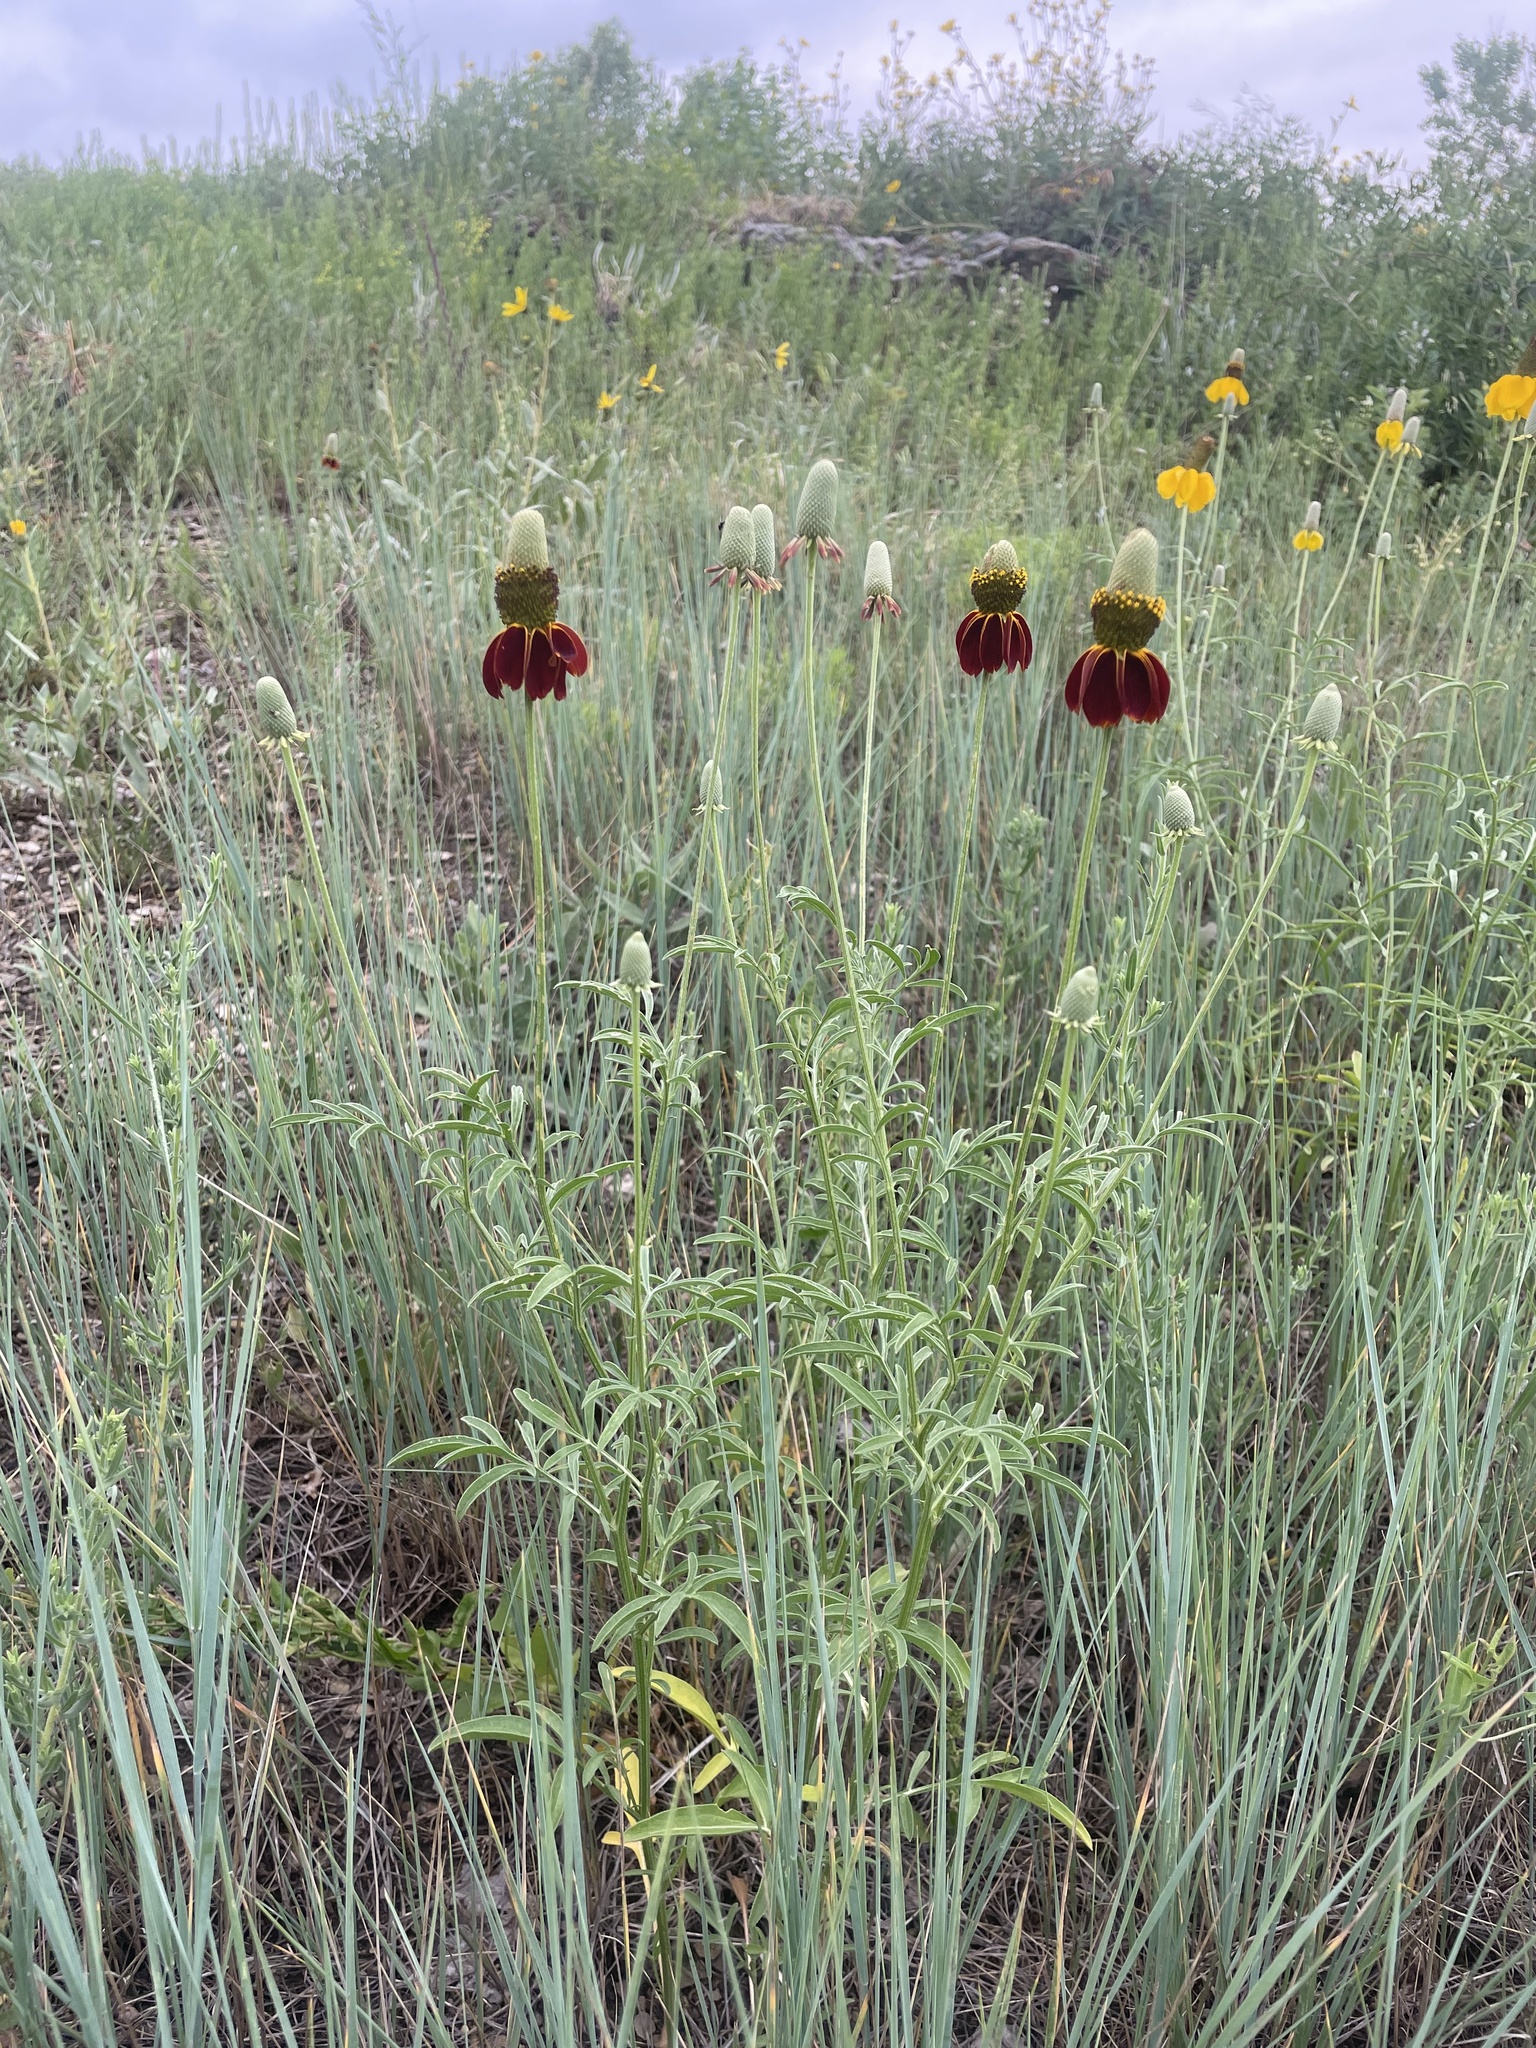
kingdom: Plantae
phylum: Tracheophyta
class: Magnoliopsida
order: Asterales
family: Asteraceae
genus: Ratibida
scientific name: Ratibida columnifera
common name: Prairie coneflower
